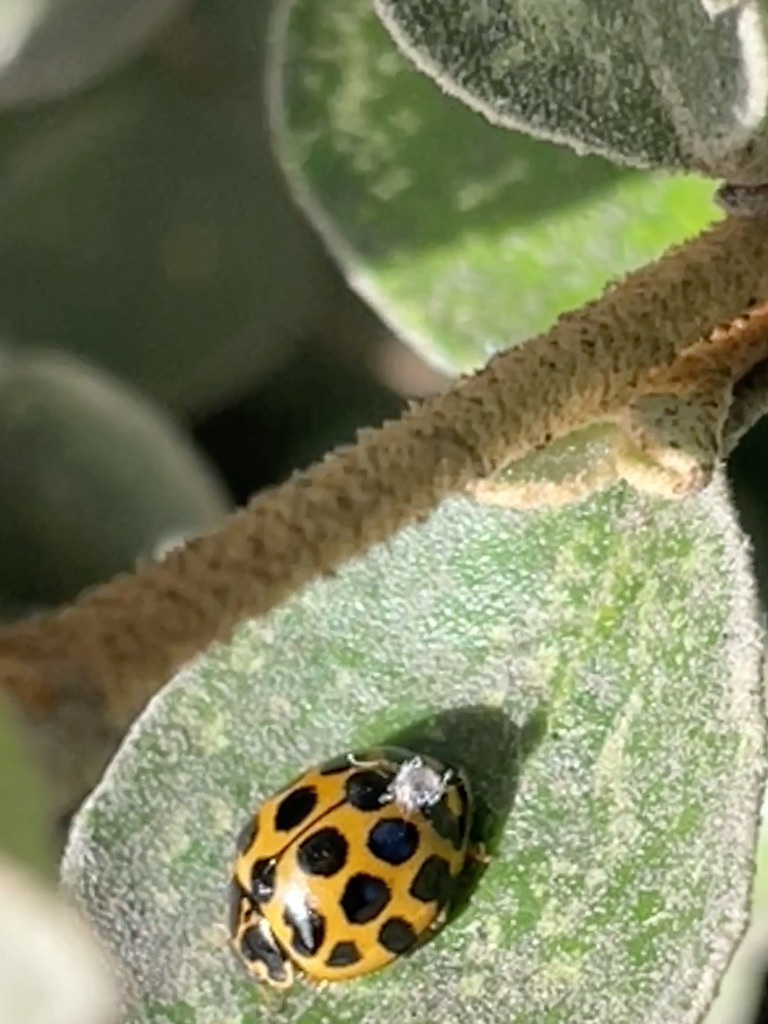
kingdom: Animalia
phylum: Arthropoda
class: Insecta
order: Coleoptera
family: Coccinellidae
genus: Harmonia
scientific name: Harmonia conformis
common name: Common spotted ladybird beetle
